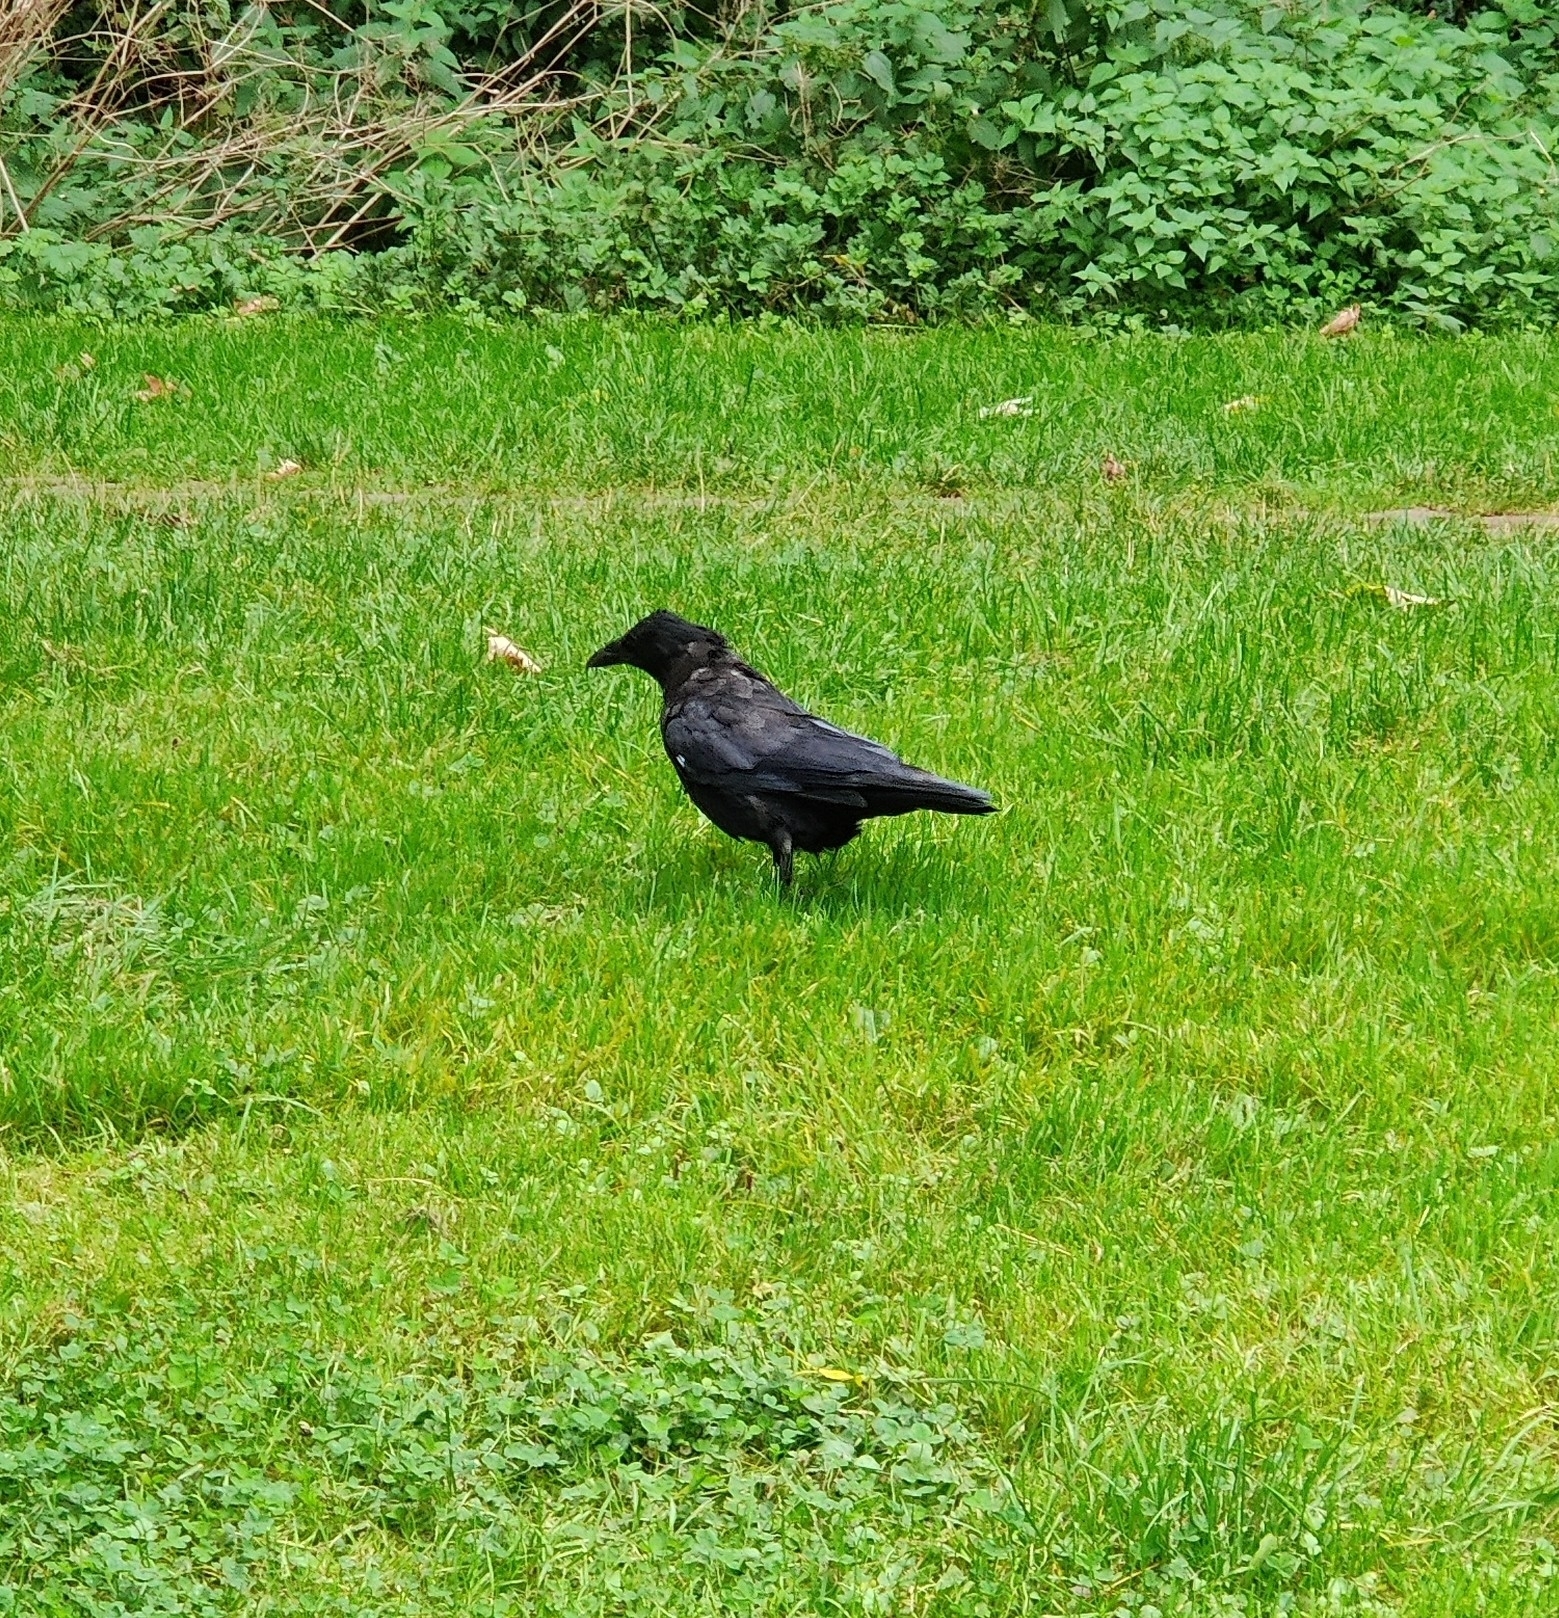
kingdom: Animalia
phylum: Chordata
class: Aves
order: Passeriformes
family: Corvidae
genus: Corvus
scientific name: Corvus corone
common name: Carrion crow
